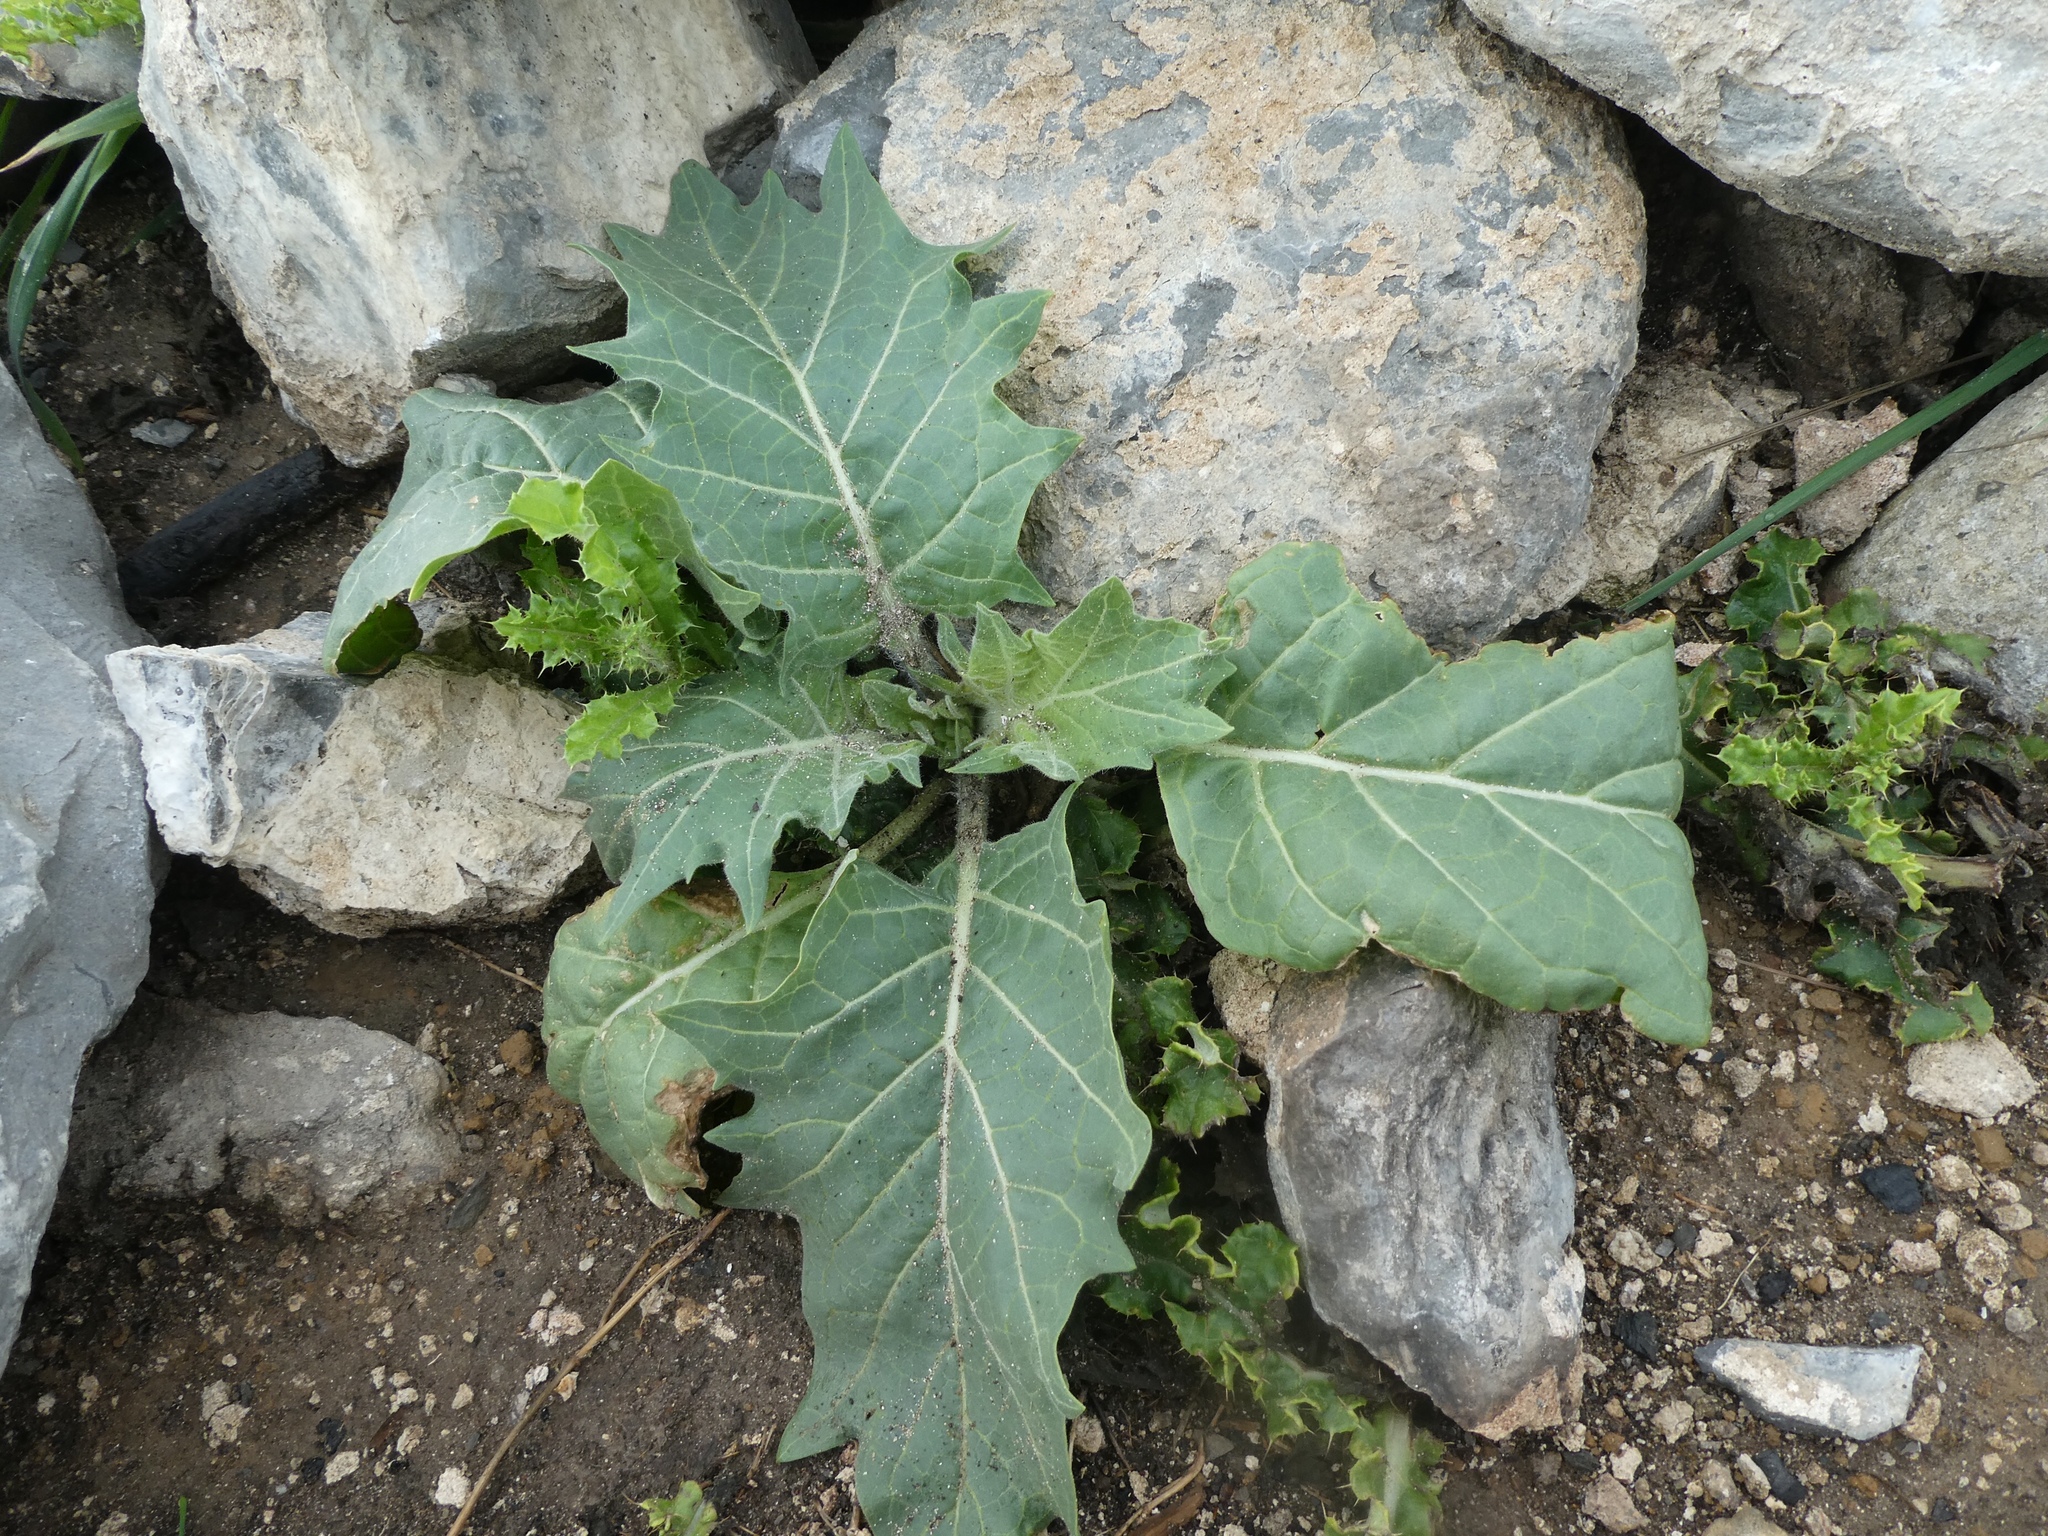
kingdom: Plantae
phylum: Tracheophyta
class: Magnoliopsida
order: Solanales
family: Solanaceae
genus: Hyoscyamus
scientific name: Hyoscyamus niger
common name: Henbane
